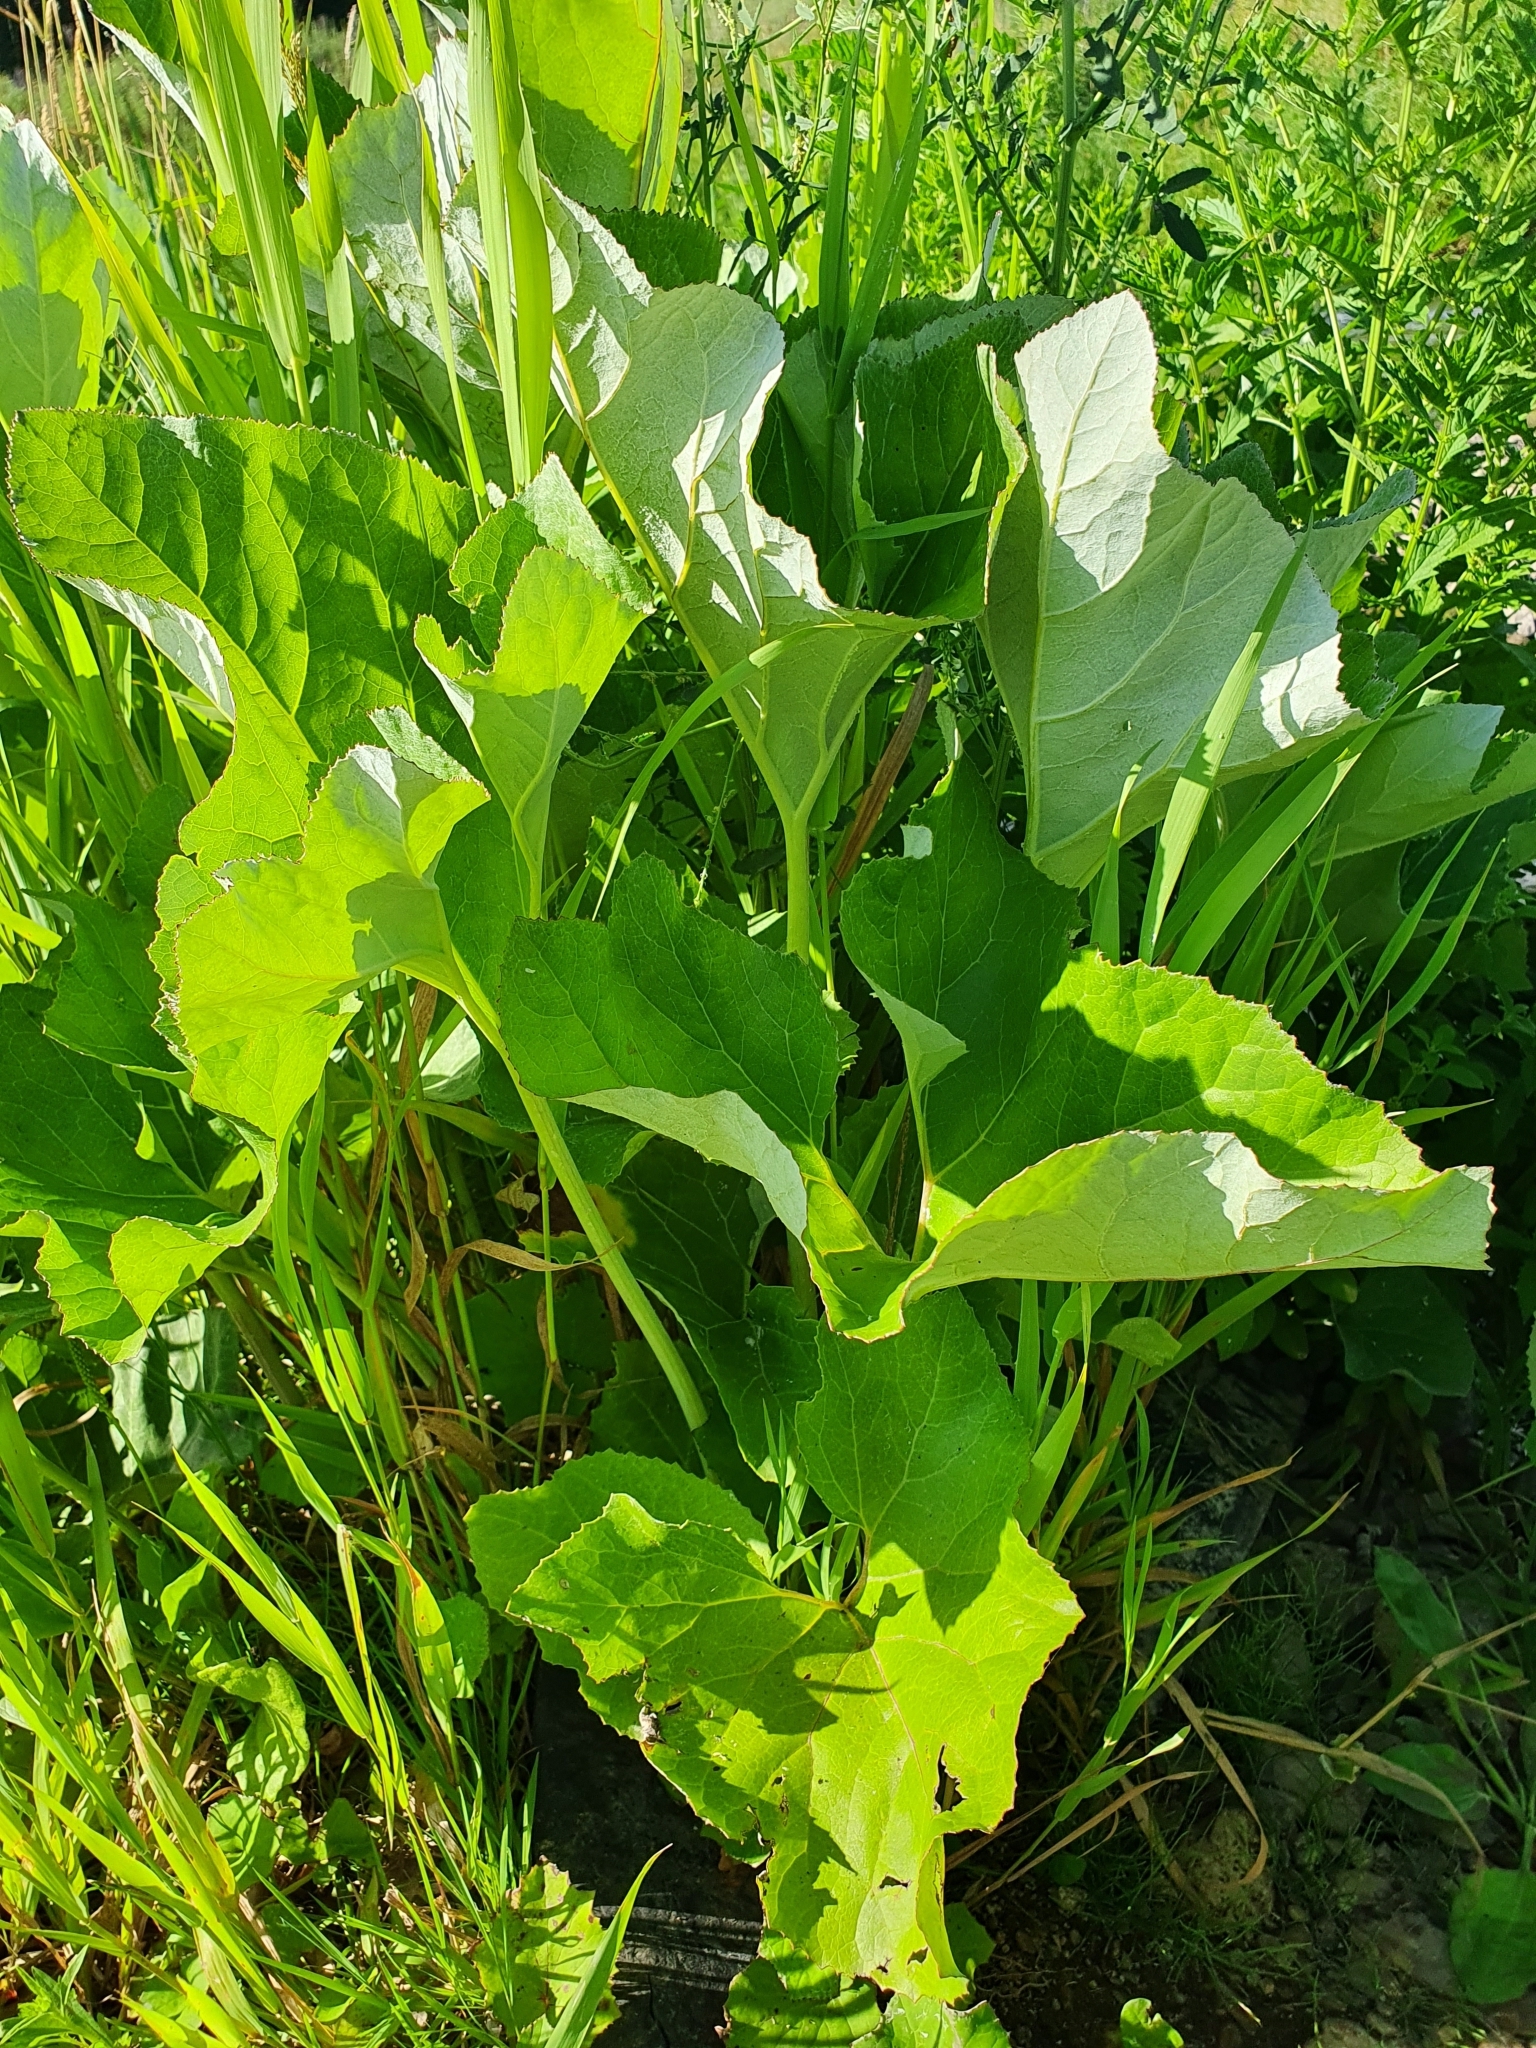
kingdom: Plantae
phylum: Tracheophyta
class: Magnoliopsida
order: Asterales
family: Asteraceae
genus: Petasites
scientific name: Petasites spurius
